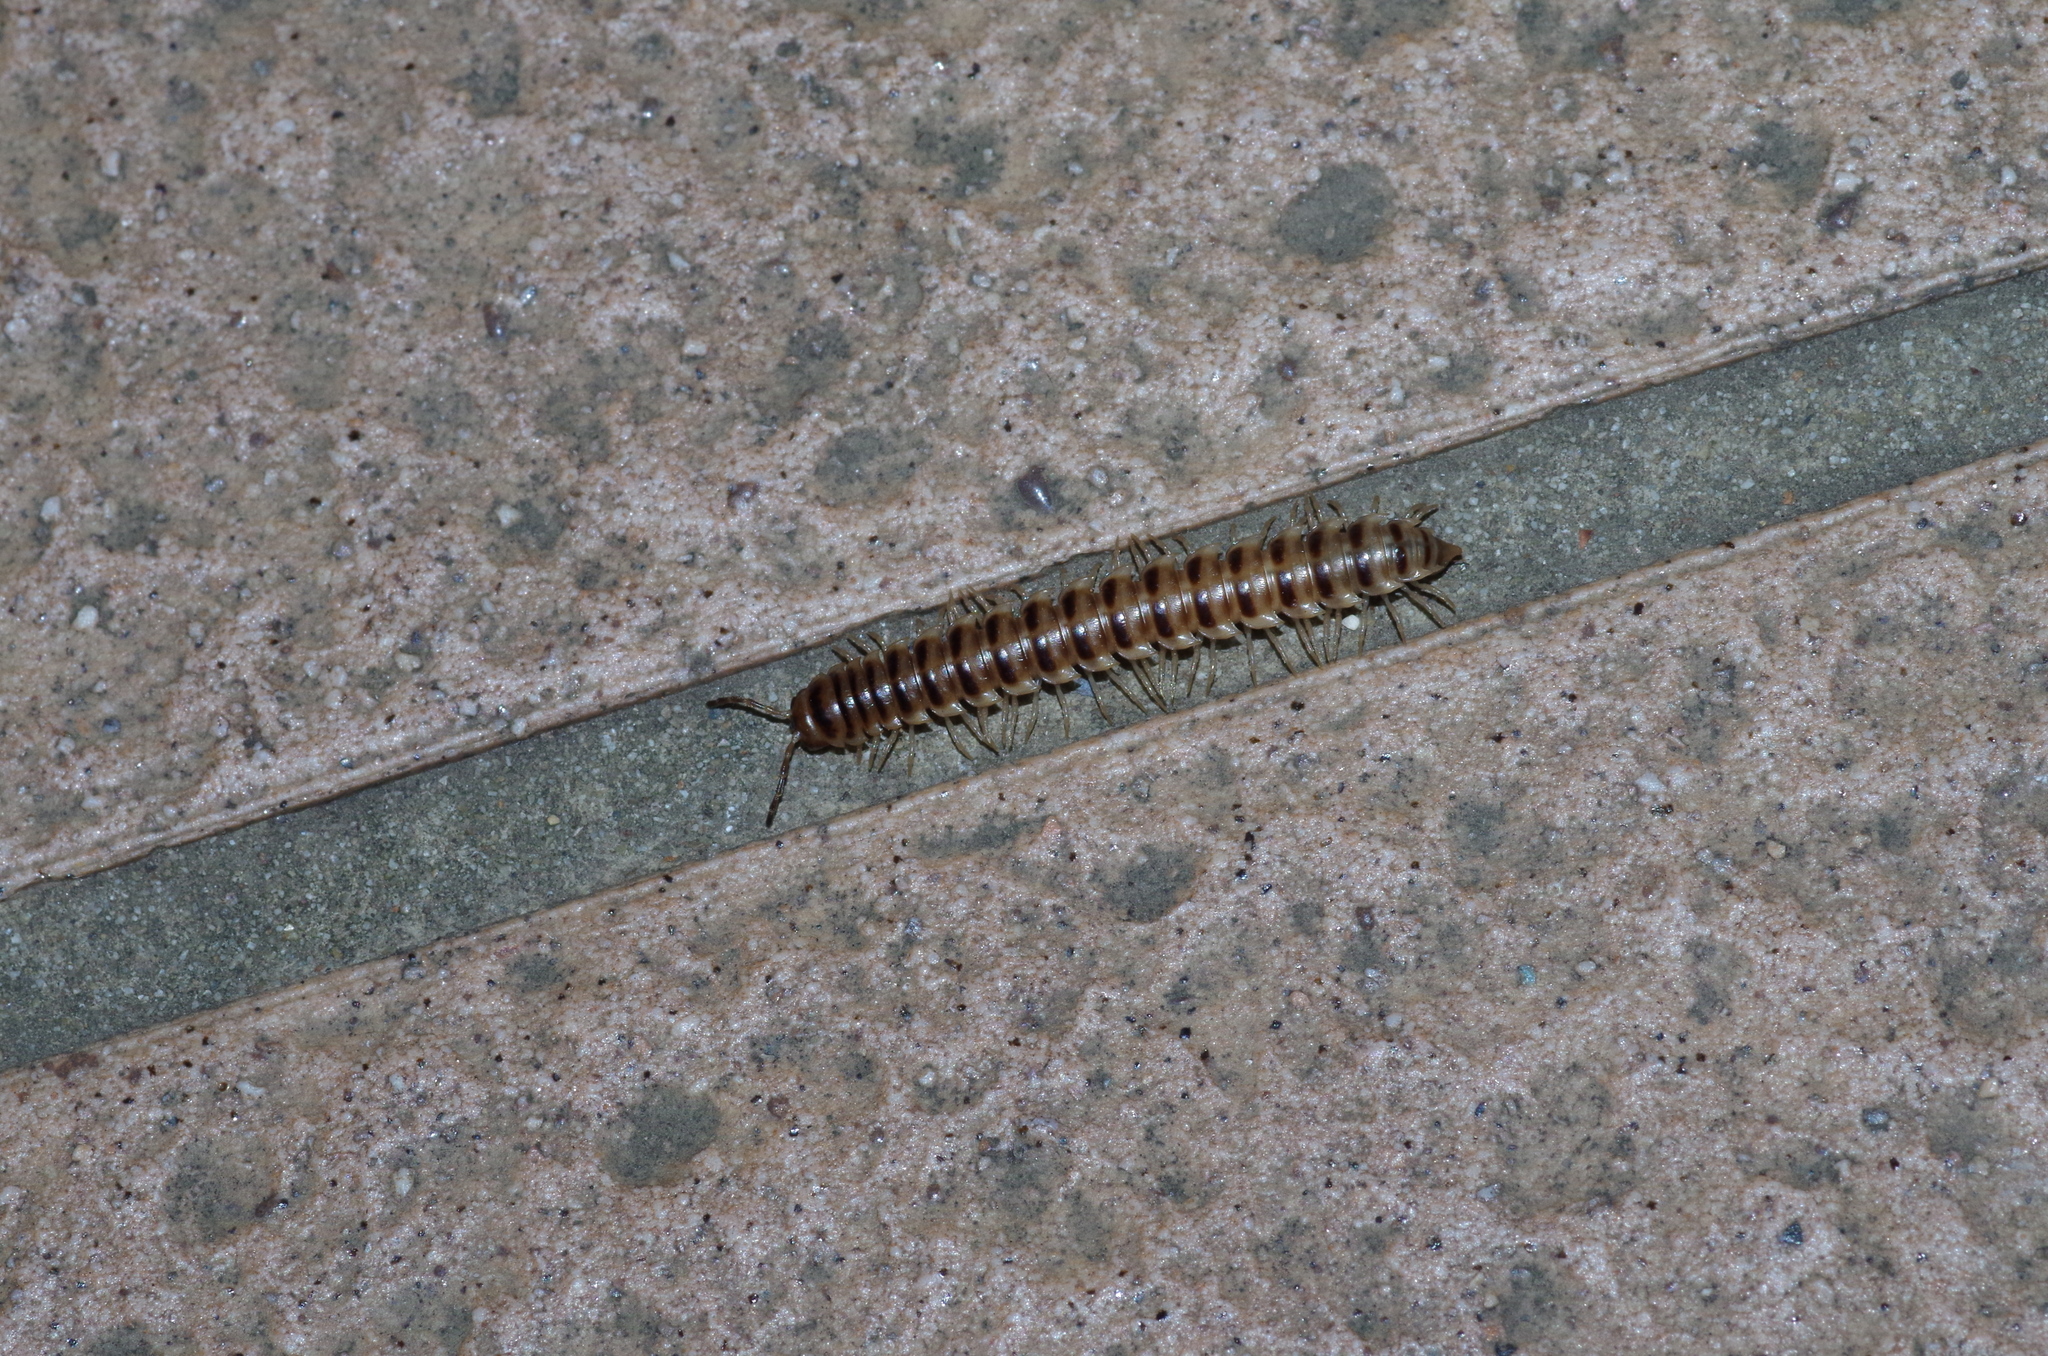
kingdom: Animalia
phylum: Arthropoda
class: Diplopoda
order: Polydesmida
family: Paradoxosomatidae
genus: Chamberlinius
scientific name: Chamberlinius hualienensis
